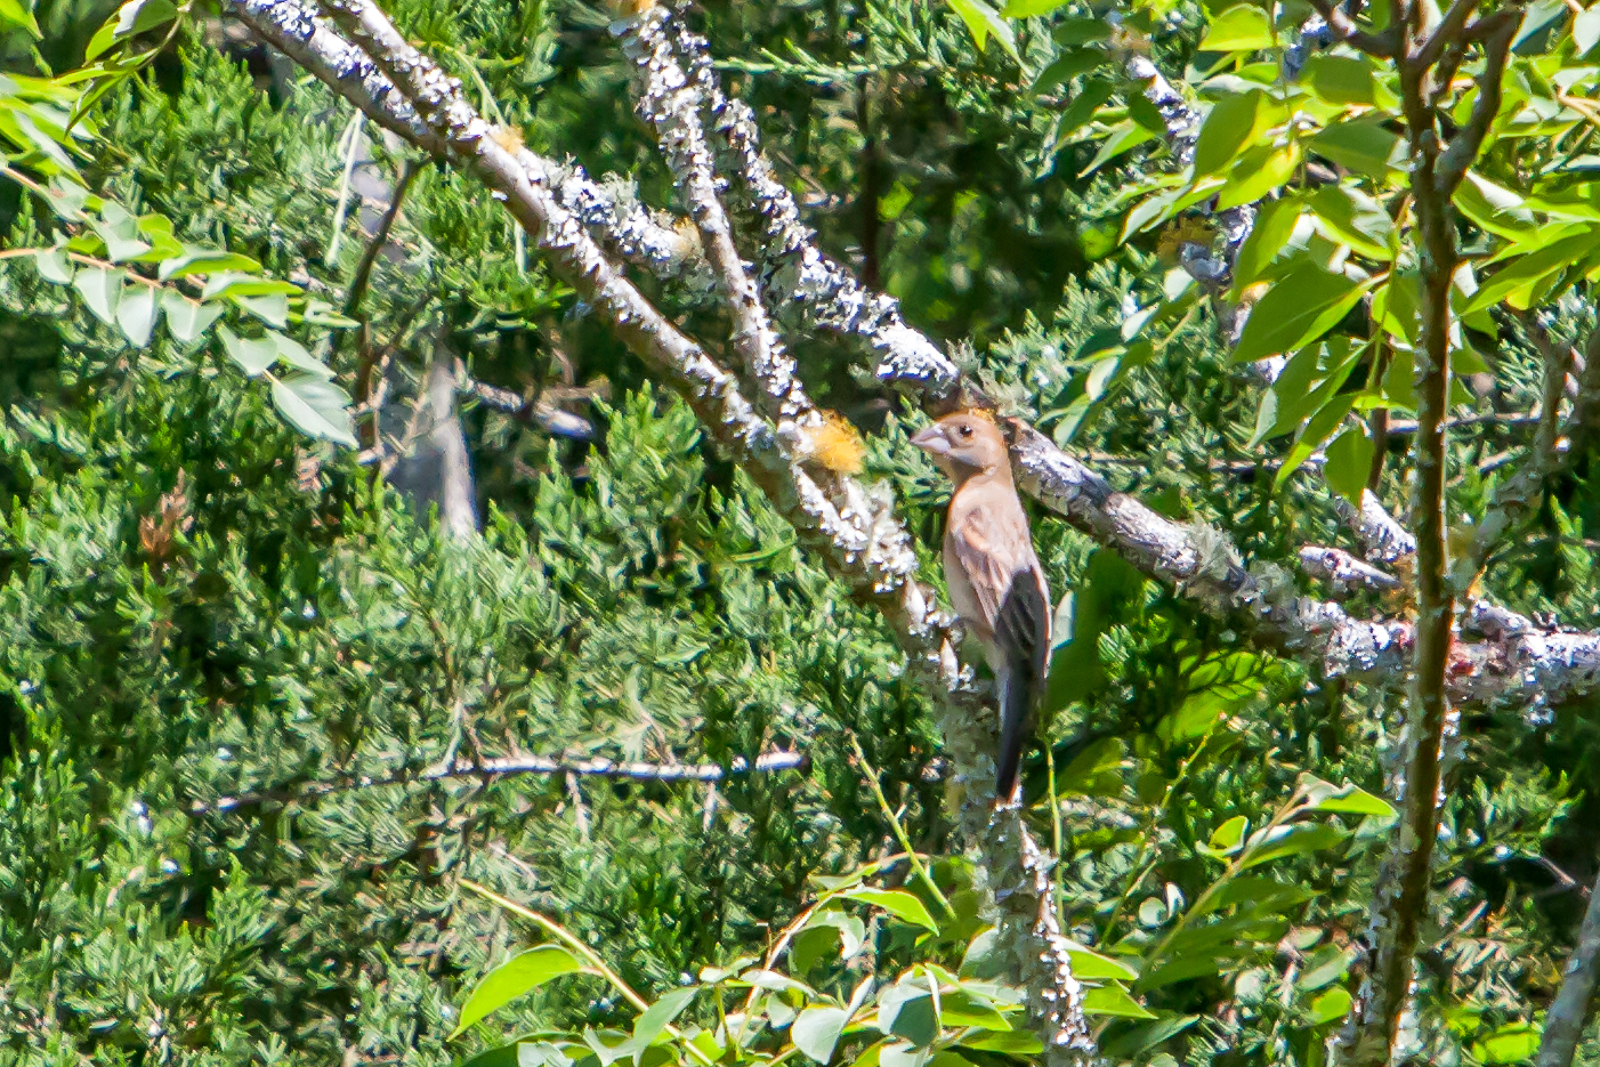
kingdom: Animalia
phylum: Chordata
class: Aves
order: Passeriformes
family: Cardinalidae
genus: Passerina
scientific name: Passerina caerulea
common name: Blue grosbeak
